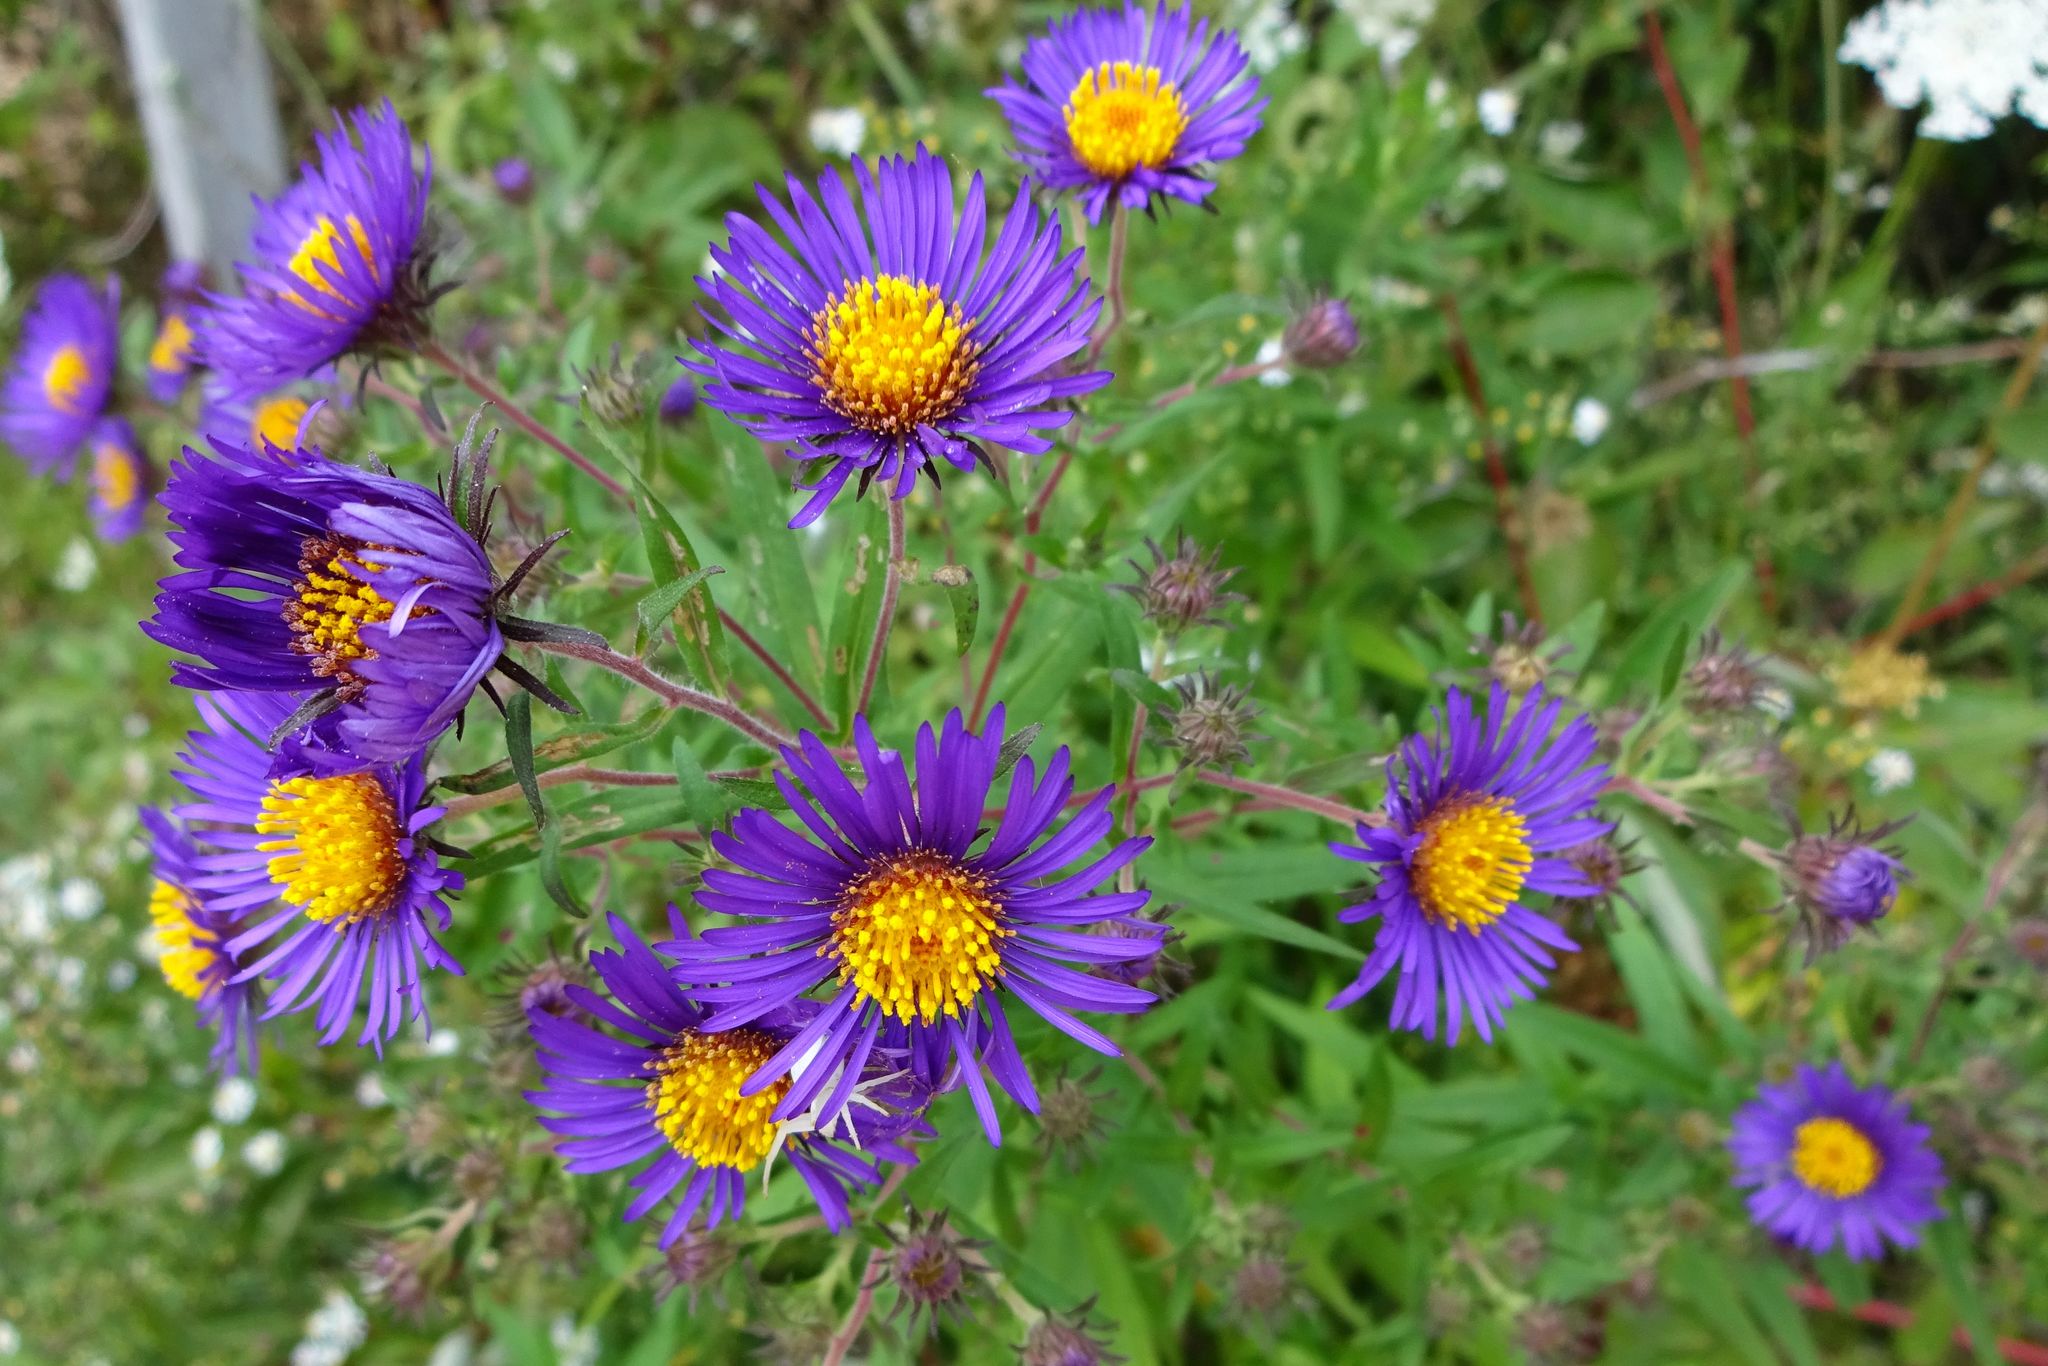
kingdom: Plantae
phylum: Tracheophyta
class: Magnoliopsida
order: Asterales
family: Asteraceae
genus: Symphyotrichum
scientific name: Symphyotrichum novae-angliae
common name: Michaelmas daisy
